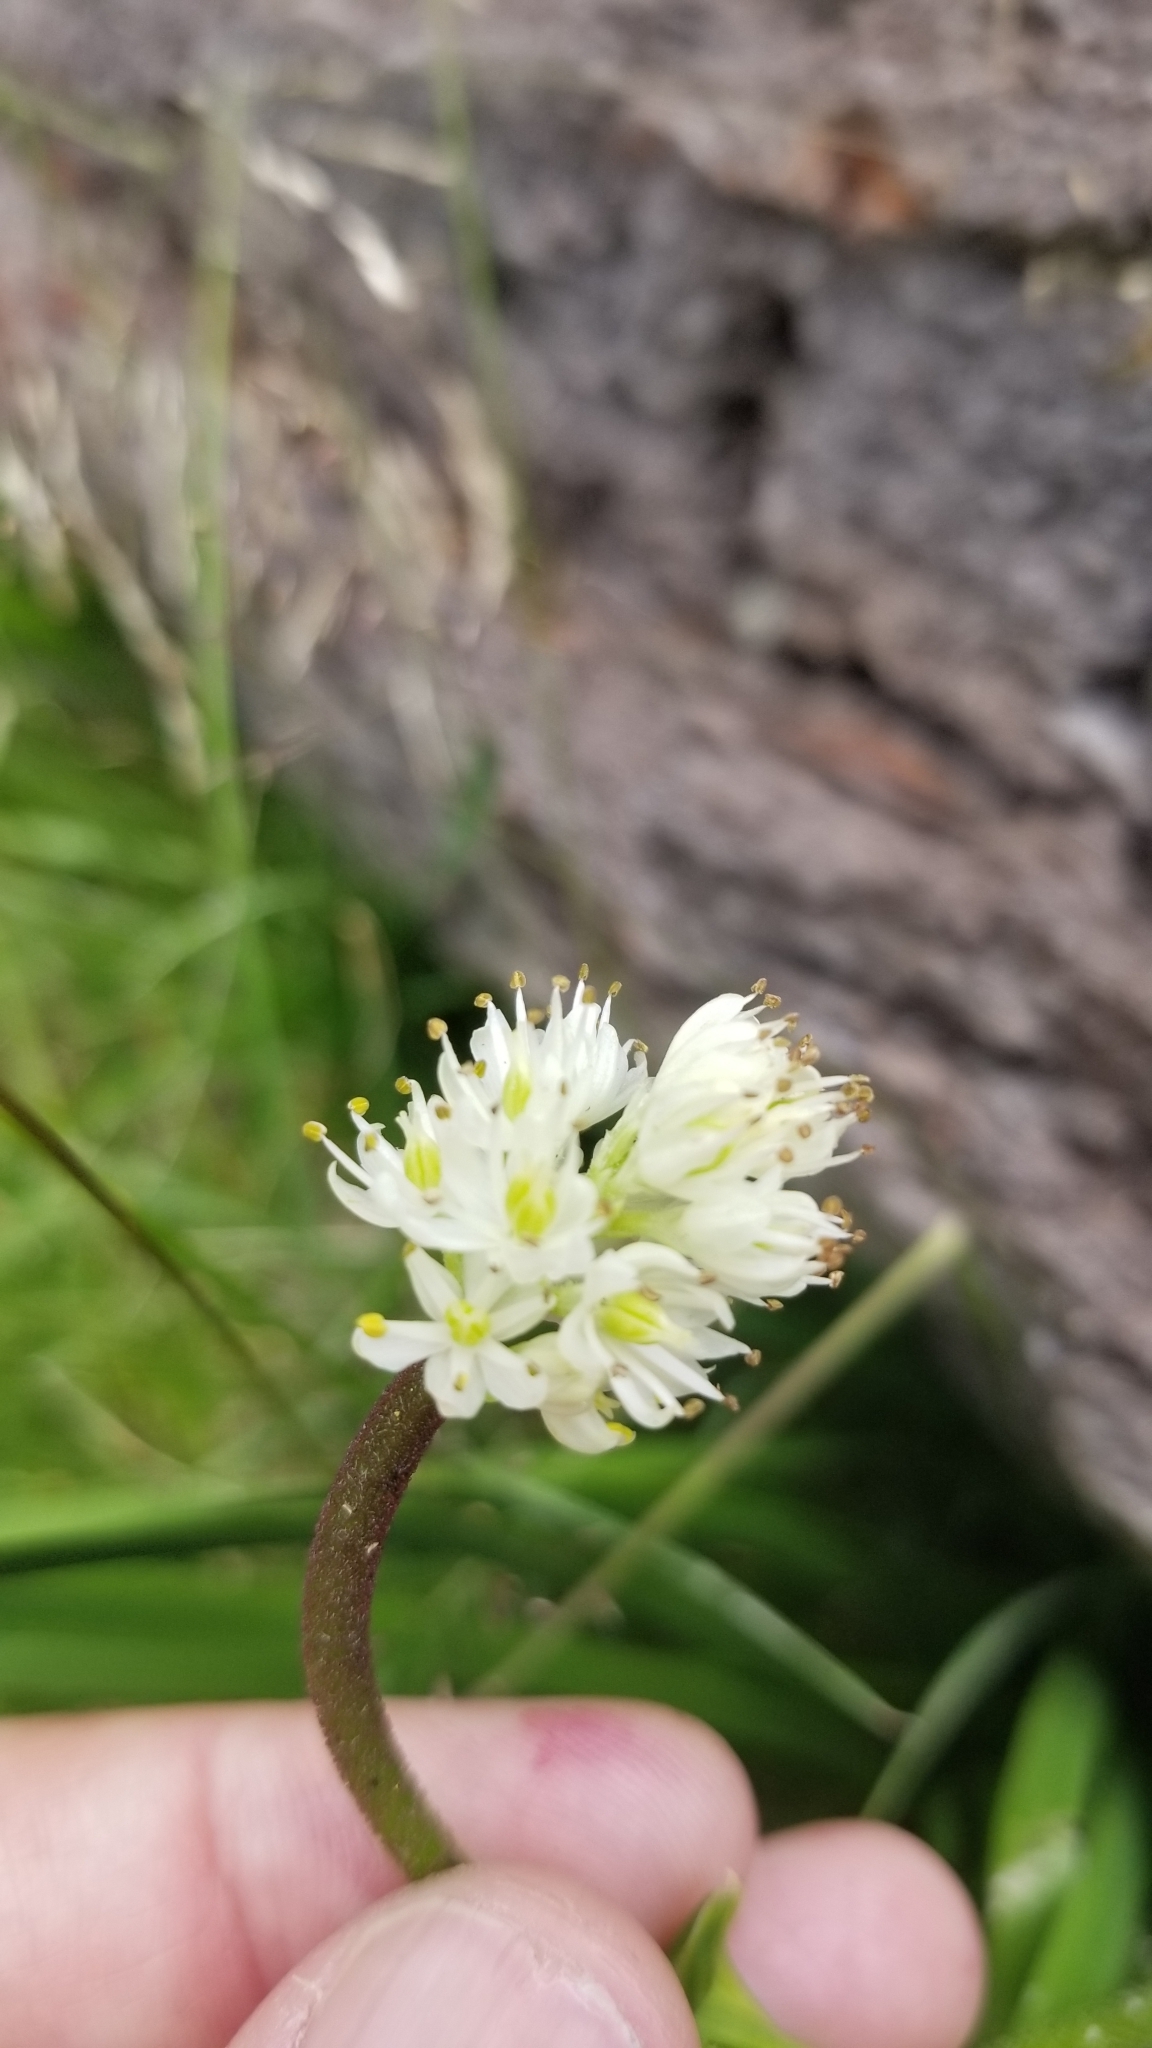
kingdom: Plantae
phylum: Tracheophyta
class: Liliopsida
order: Alismatales
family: Tofieldiaceae
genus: Triantha
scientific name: Triantha occidentalis
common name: Western false asphodel
